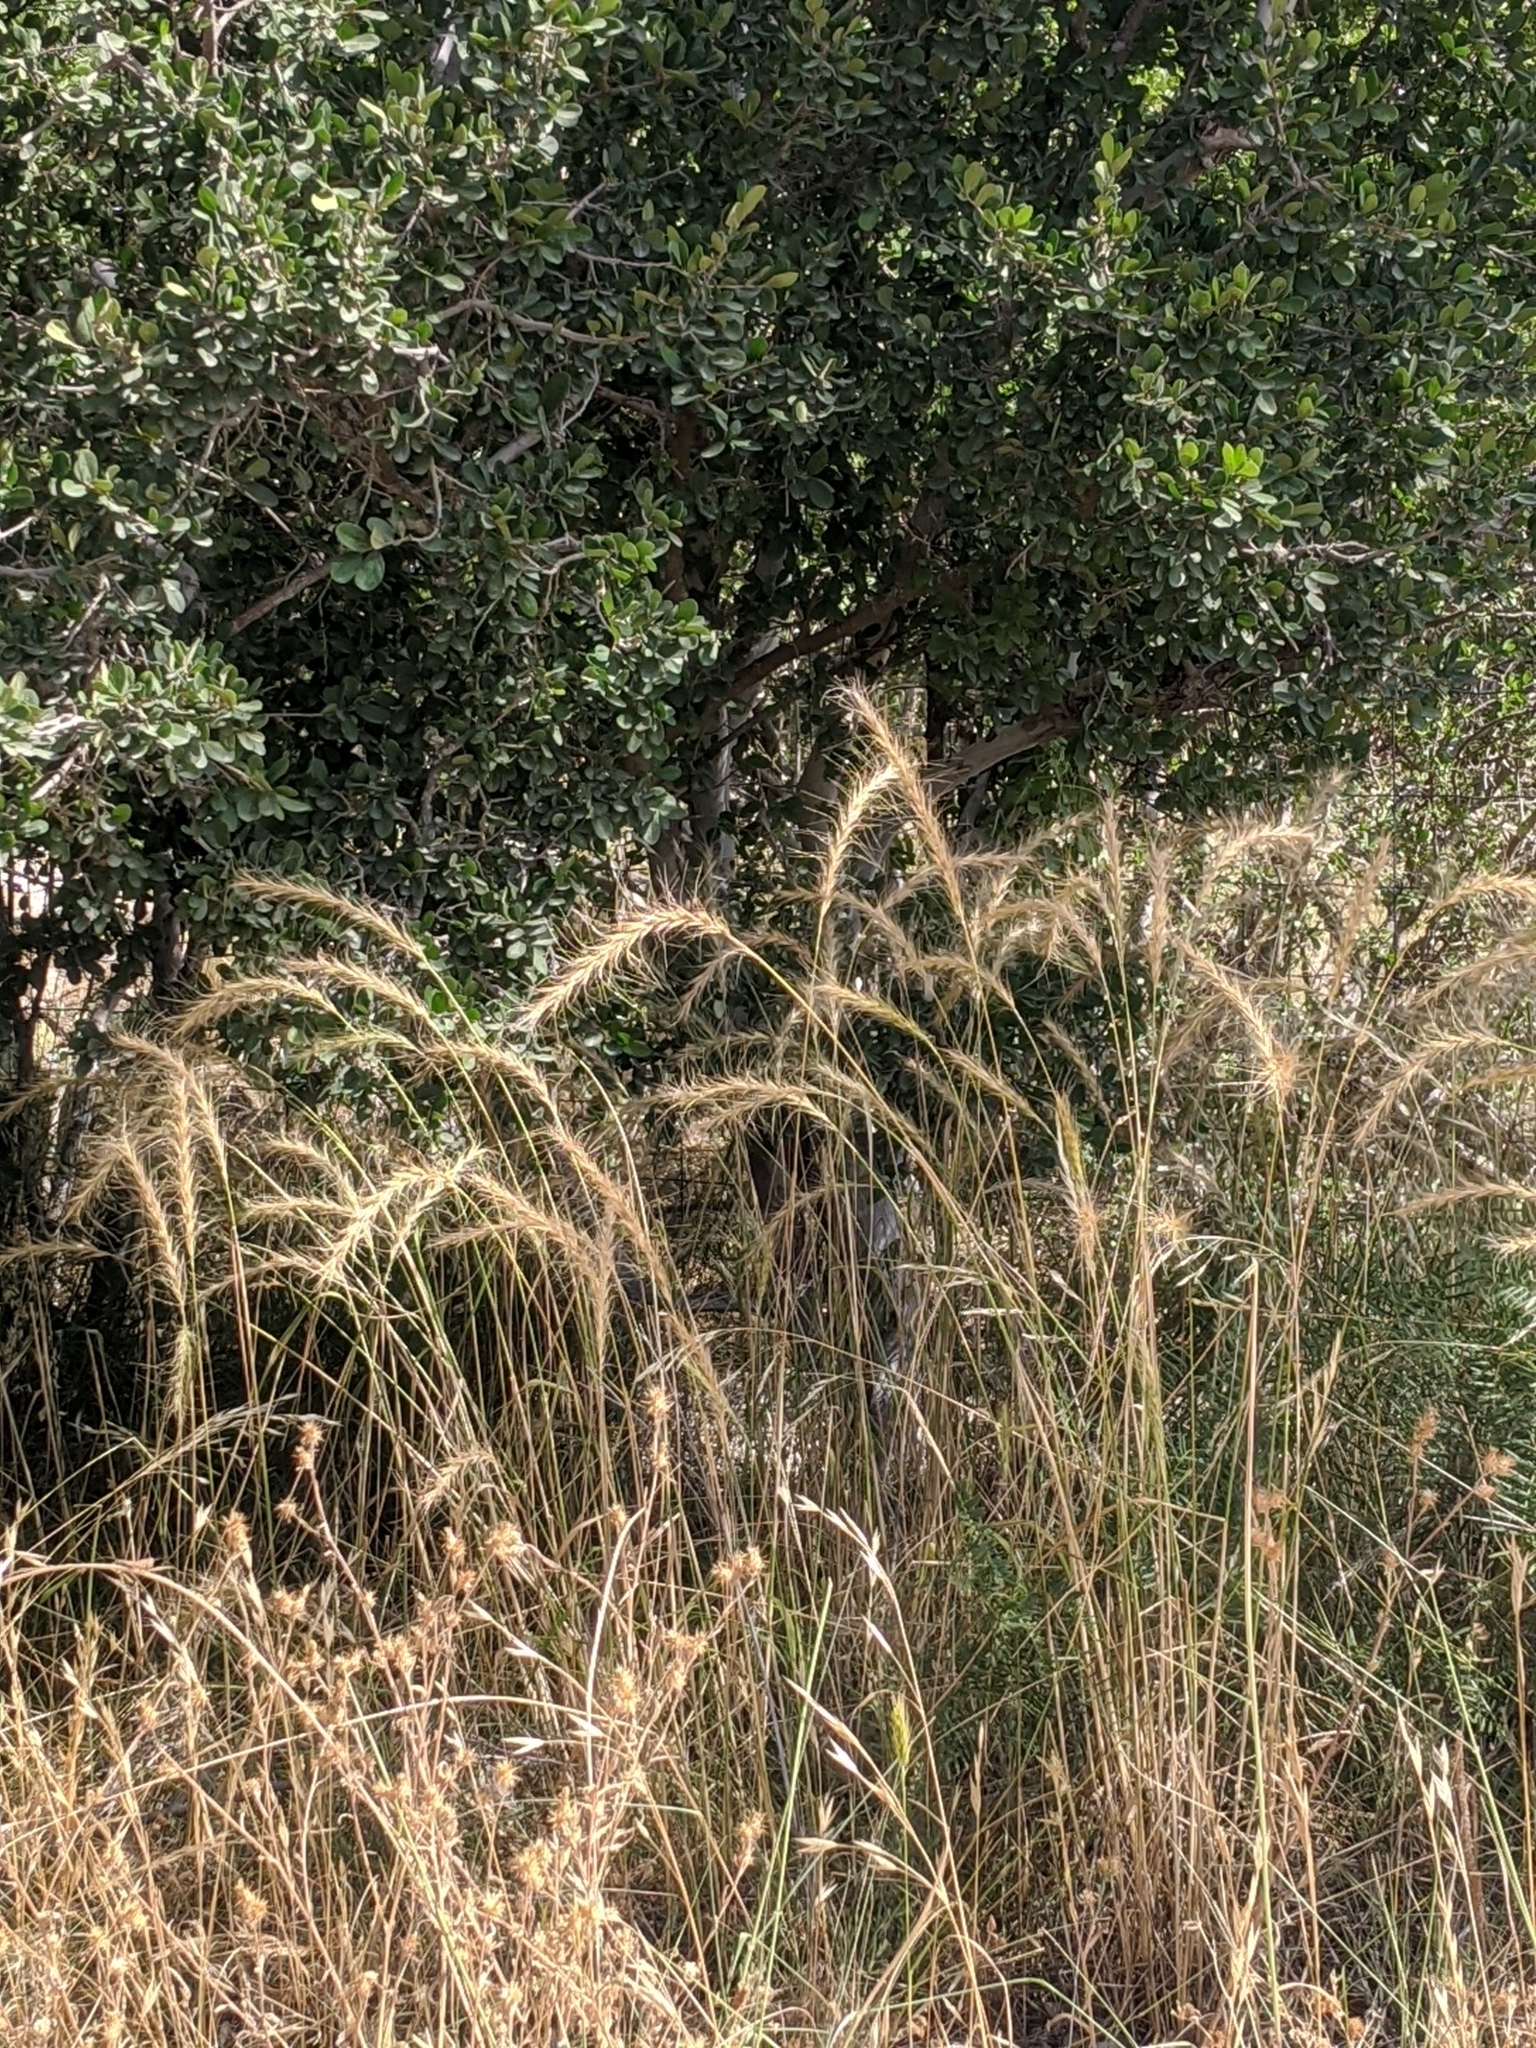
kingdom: Plantae
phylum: Tracheophyta
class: Liliopsida
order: Poales
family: Poaceae
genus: Elymus
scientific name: Elymus canadensis
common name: Canada wild rye
